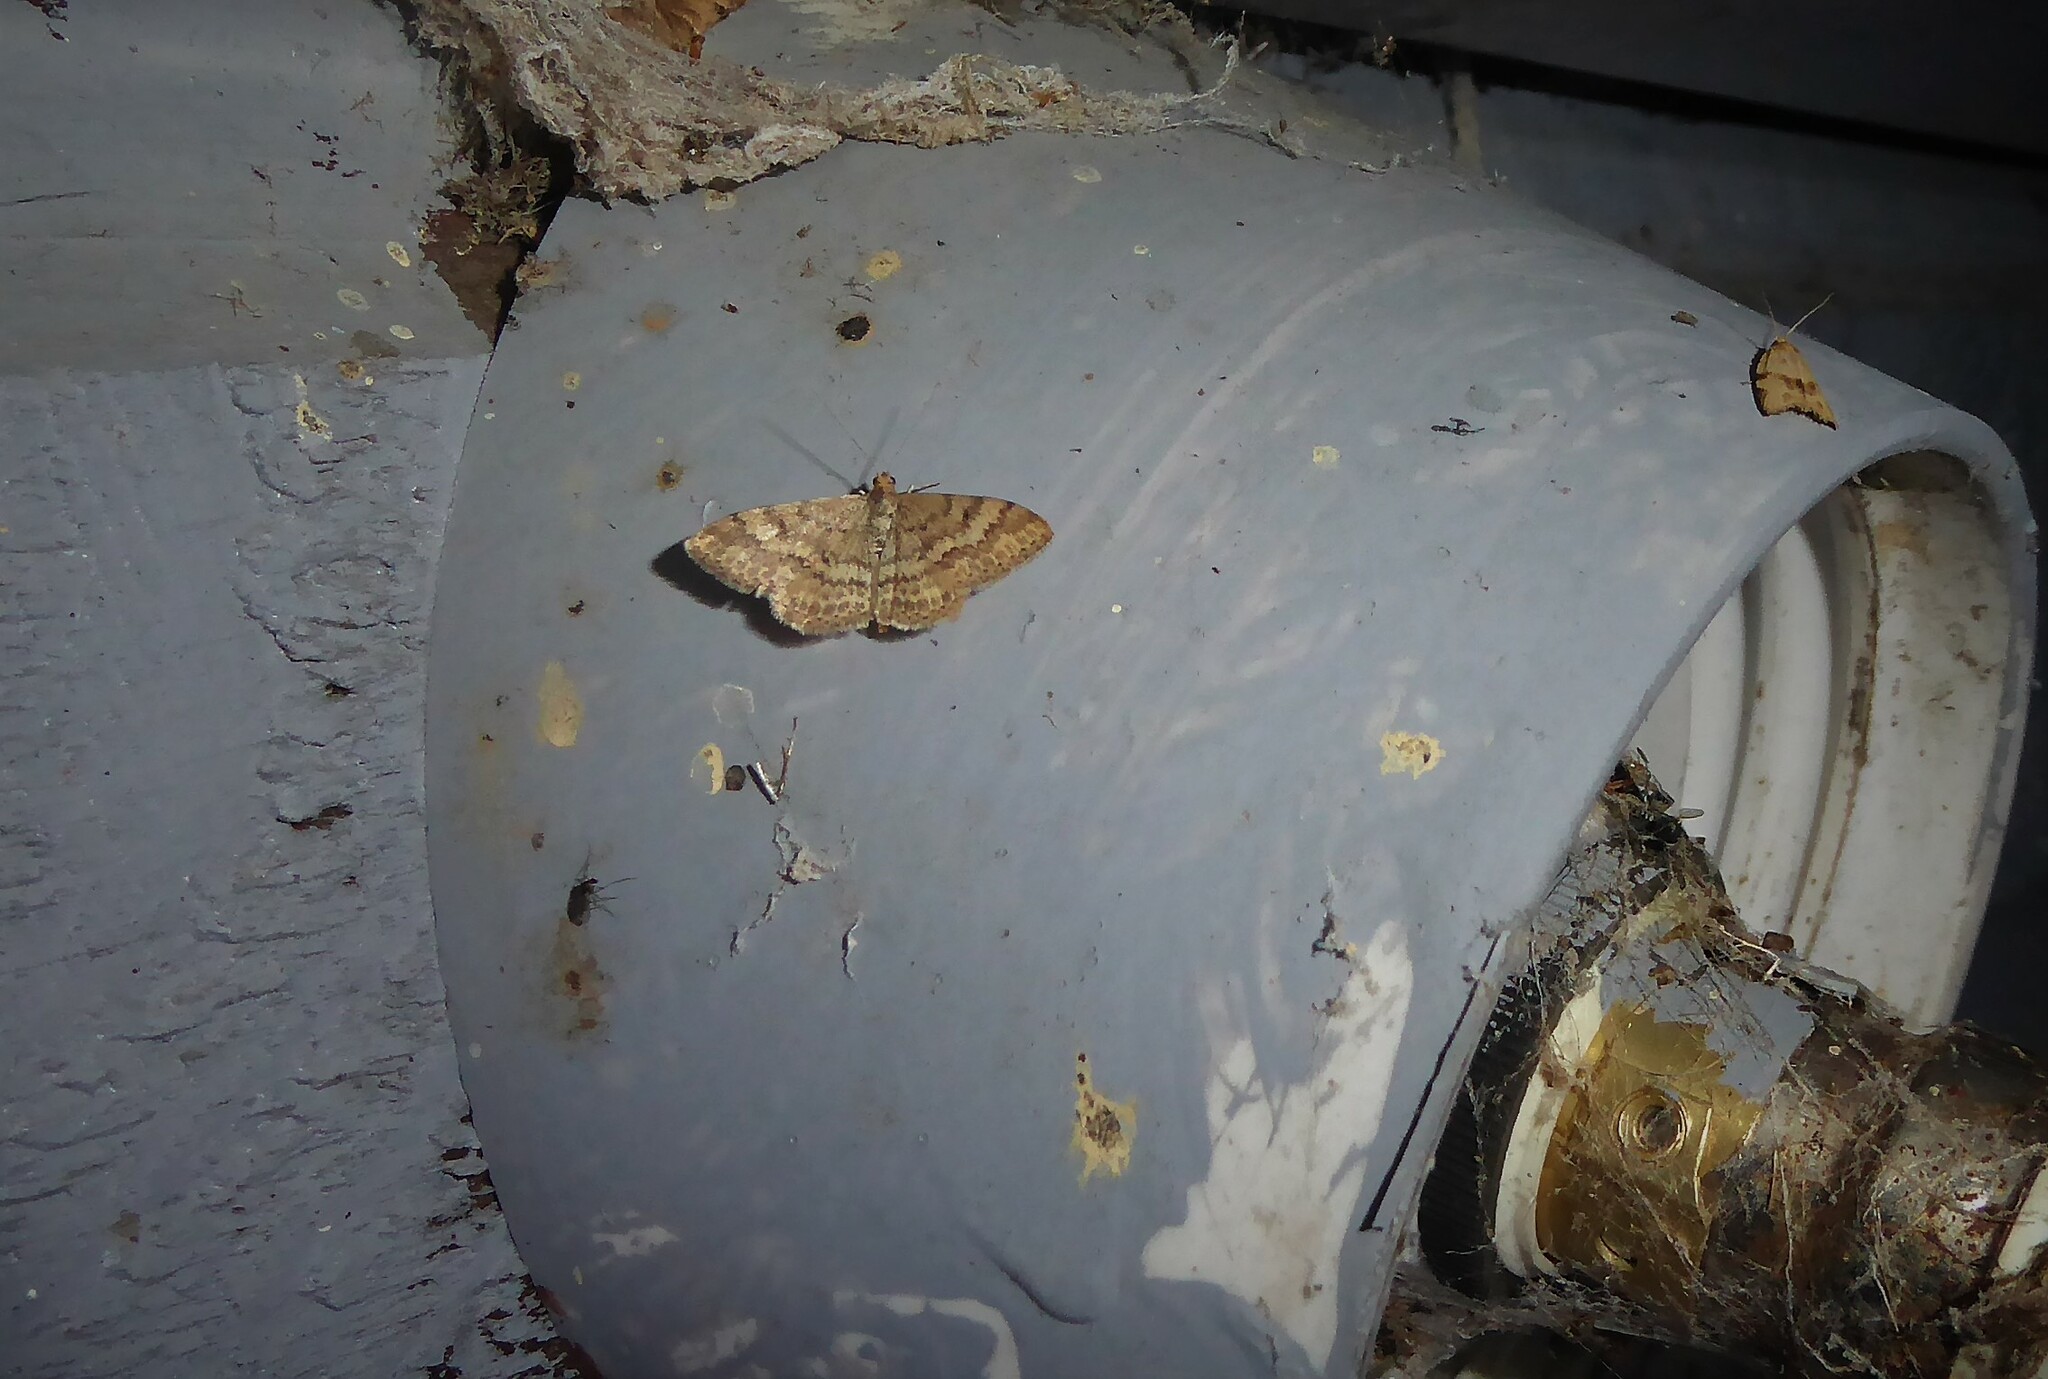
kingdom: Animalia
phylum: Arthropoda
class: Insecta
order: Lepidoptera
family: Geometridae
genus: Scopula
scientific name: Scopula rubraria
